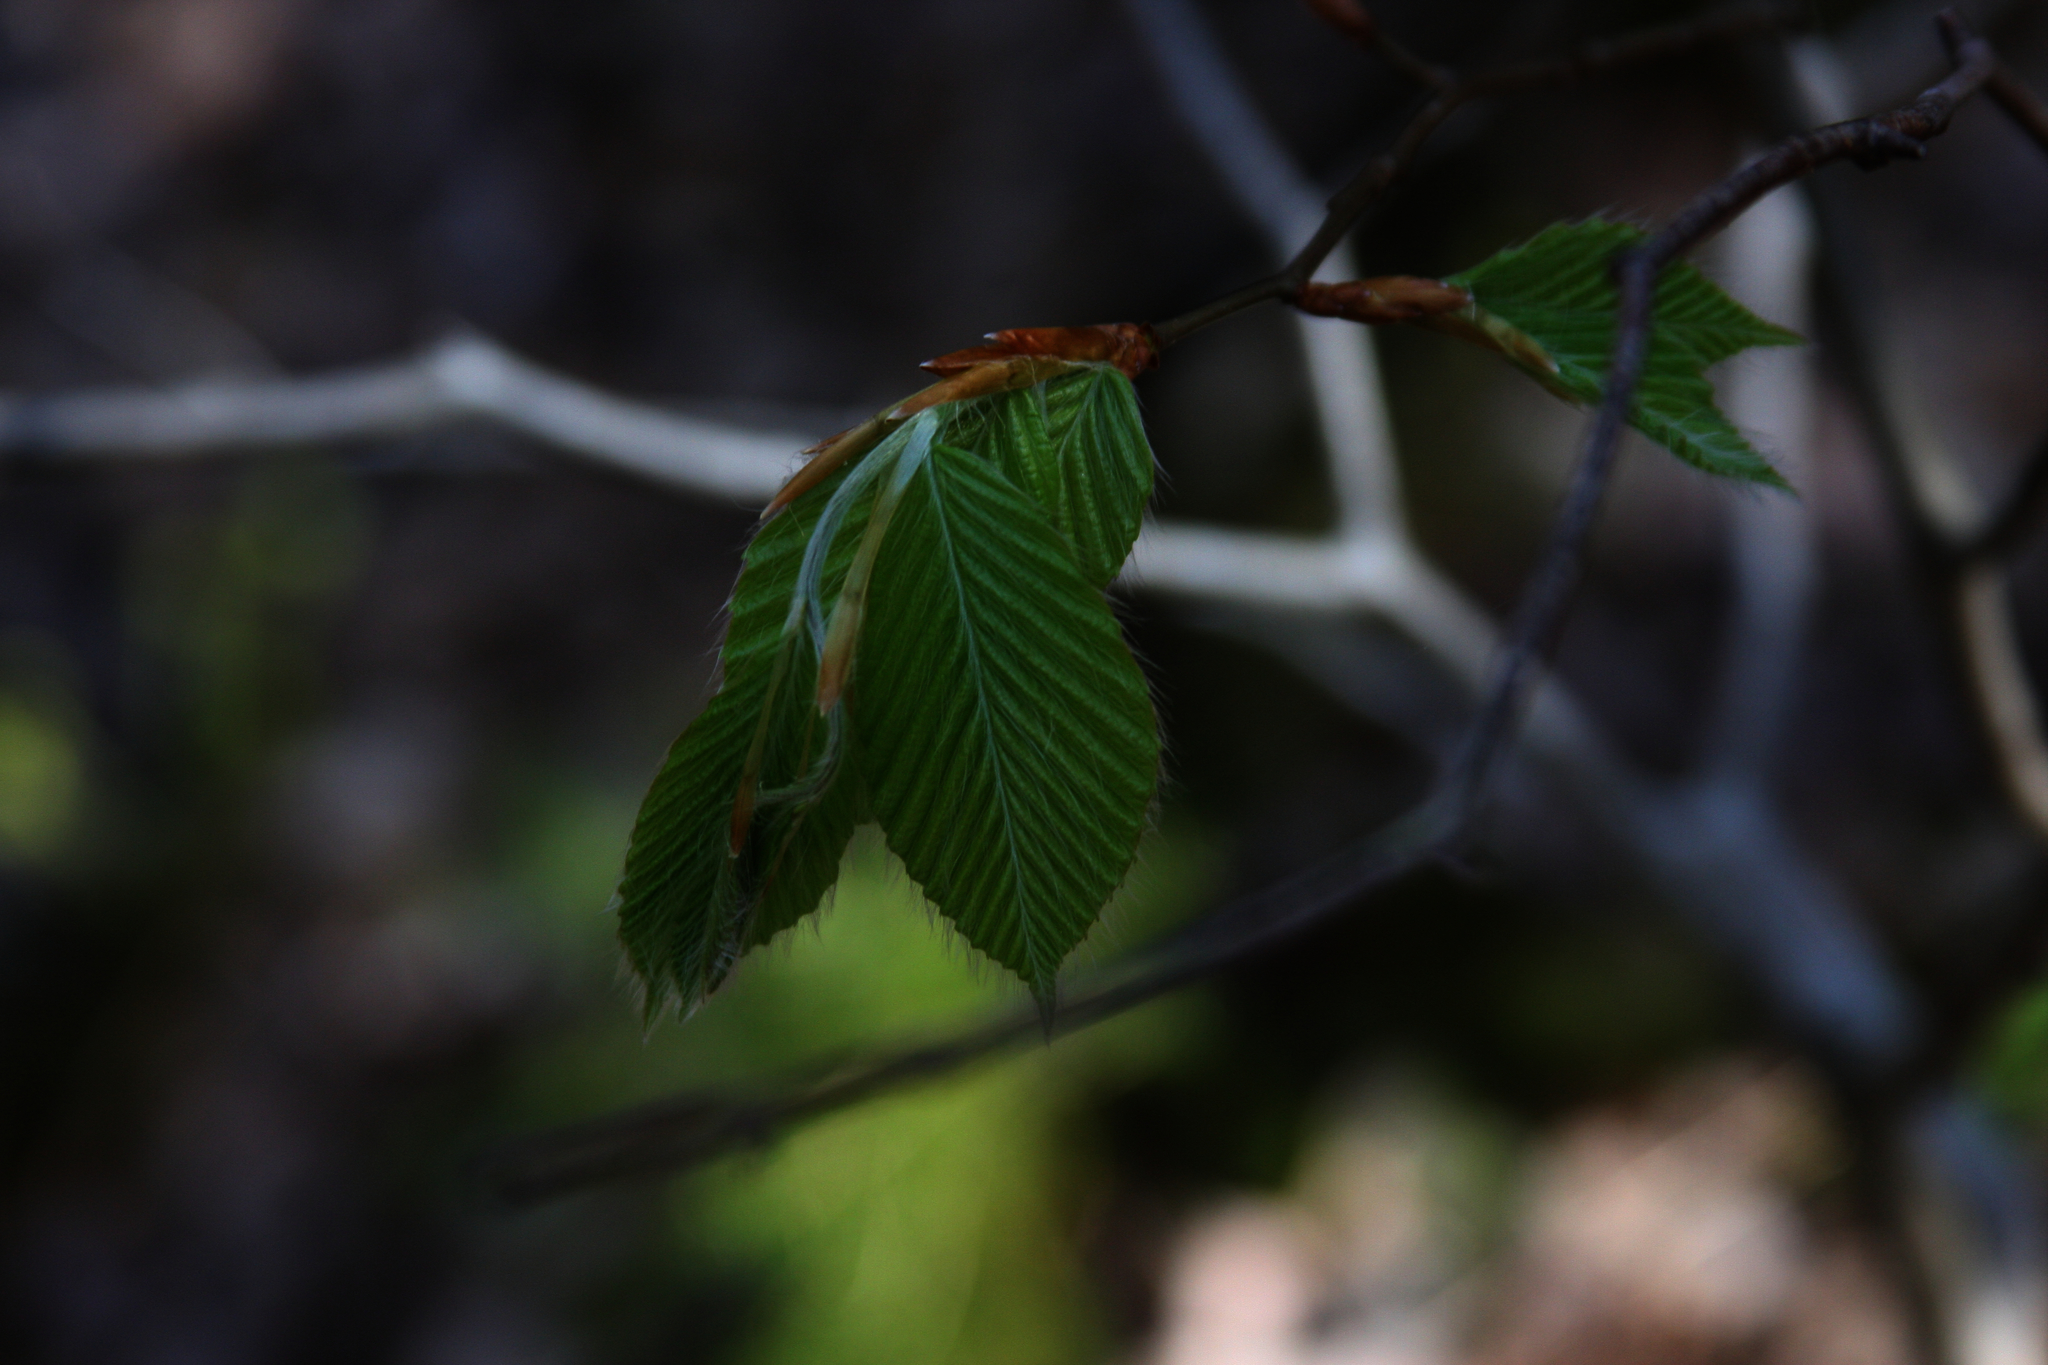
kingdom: Plantae
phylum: Tracheophyta
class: Magnoliopsida
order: Fagales
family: Fagaceae
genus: Fagus
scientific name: Fagus grandifolia
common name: American beech
